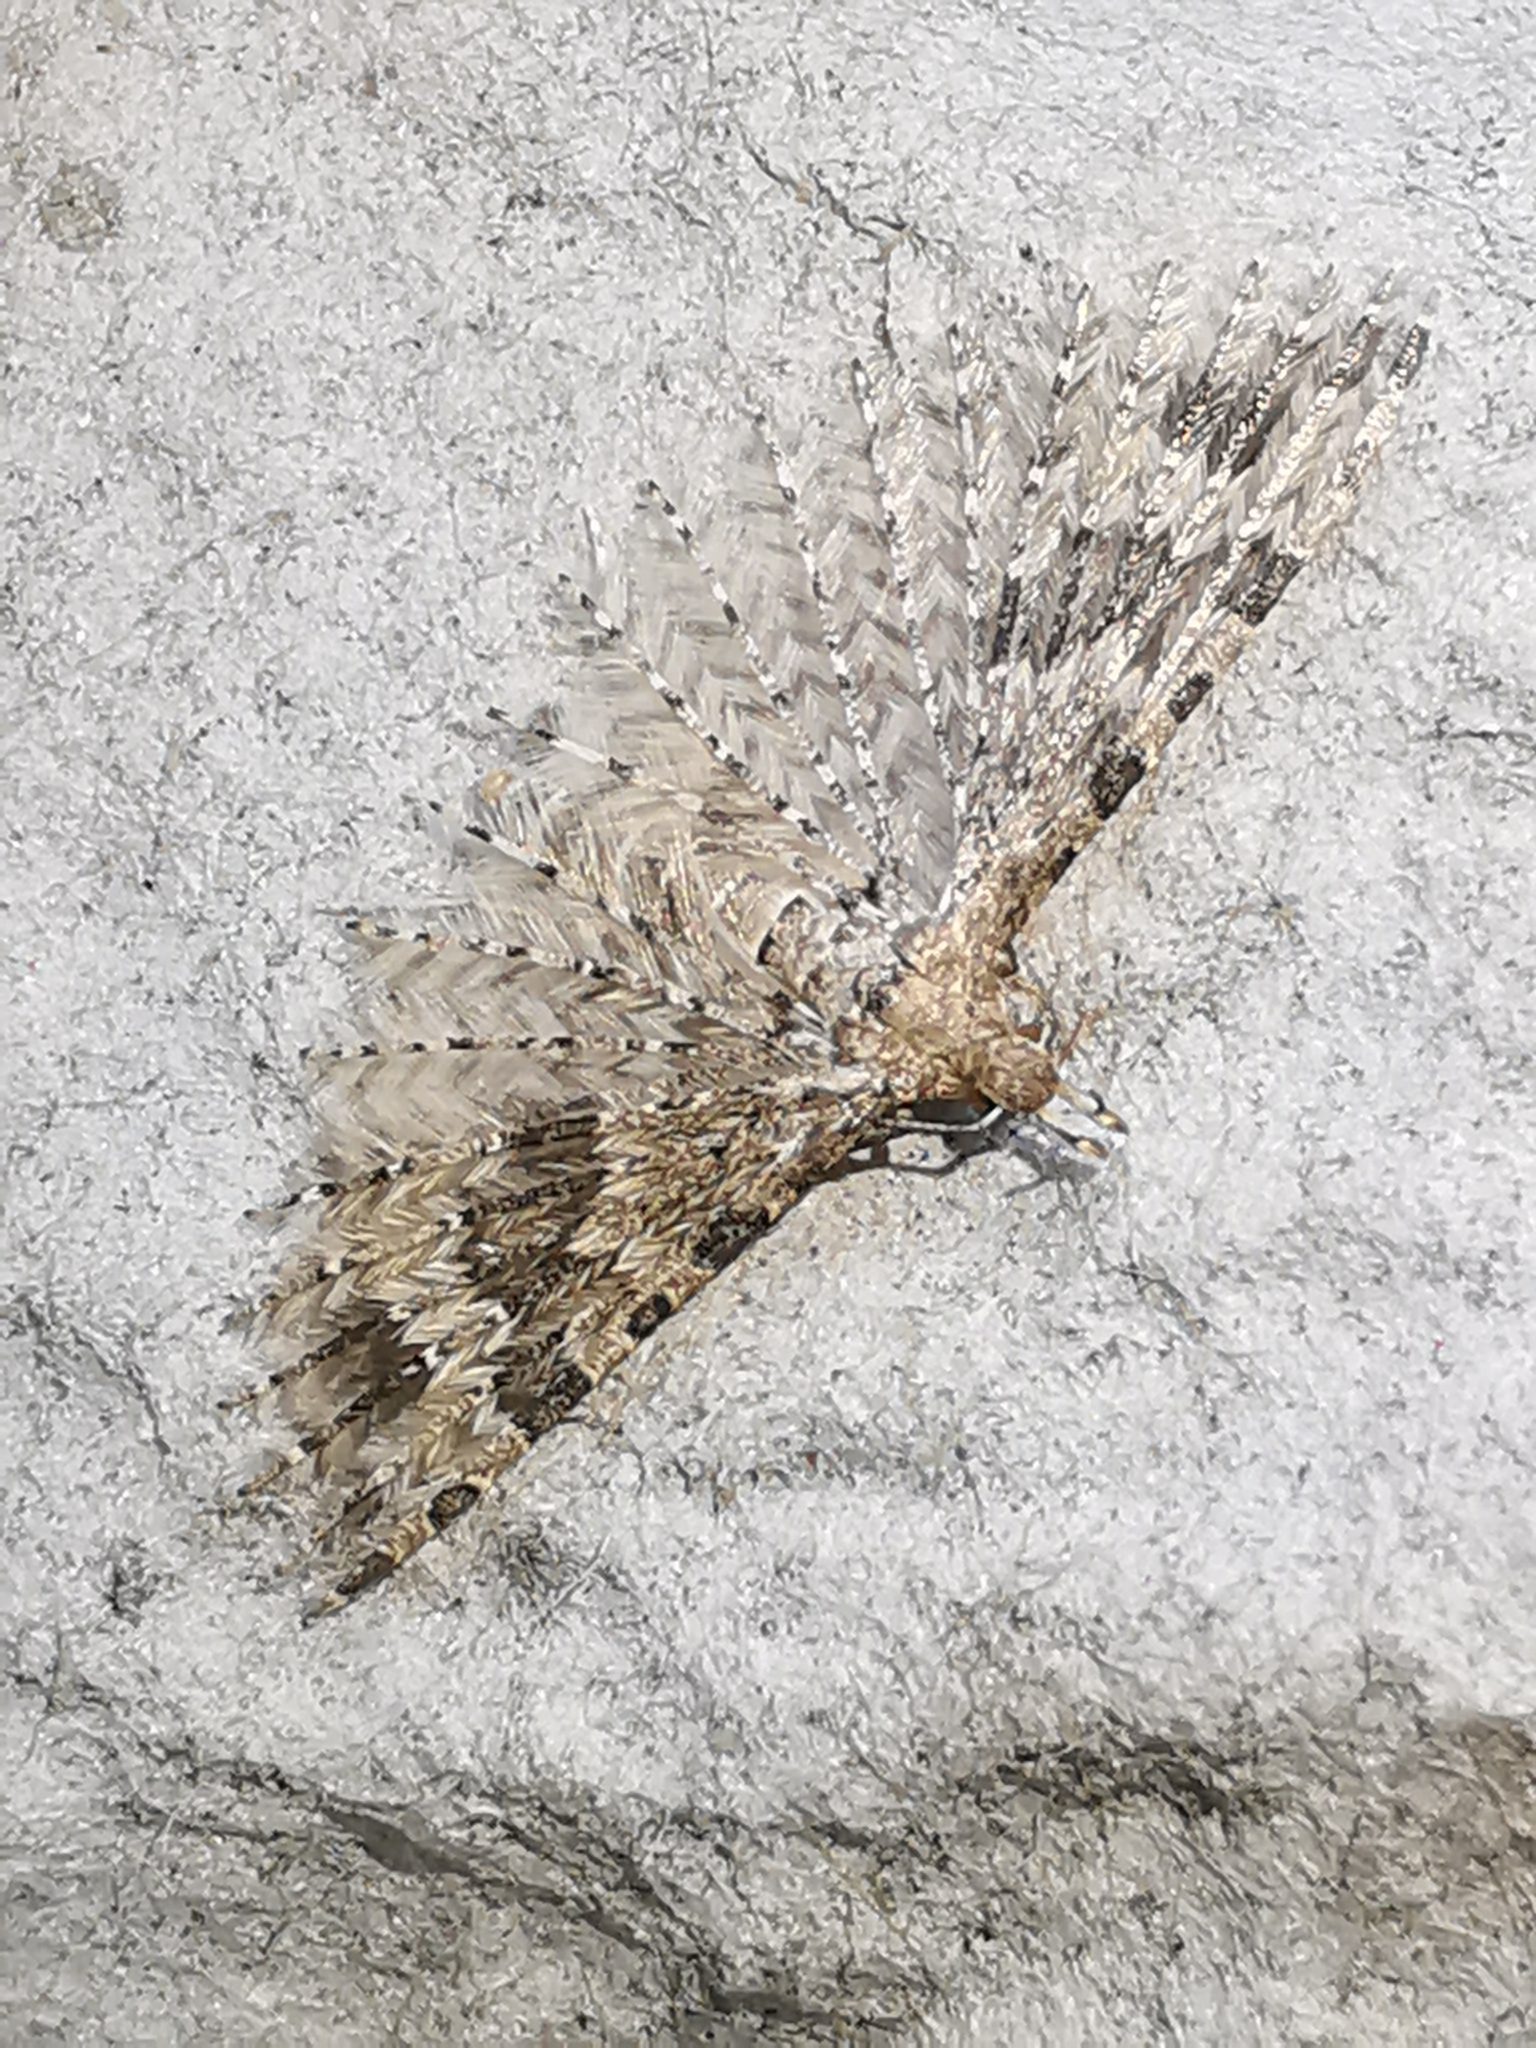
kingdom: Animalia
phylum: Arthropoda
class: Insecta
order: Lepidoptera
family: Alucitidae
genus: Alucita
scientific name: Alucita hexadactyla
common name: Twenty-plume moth
